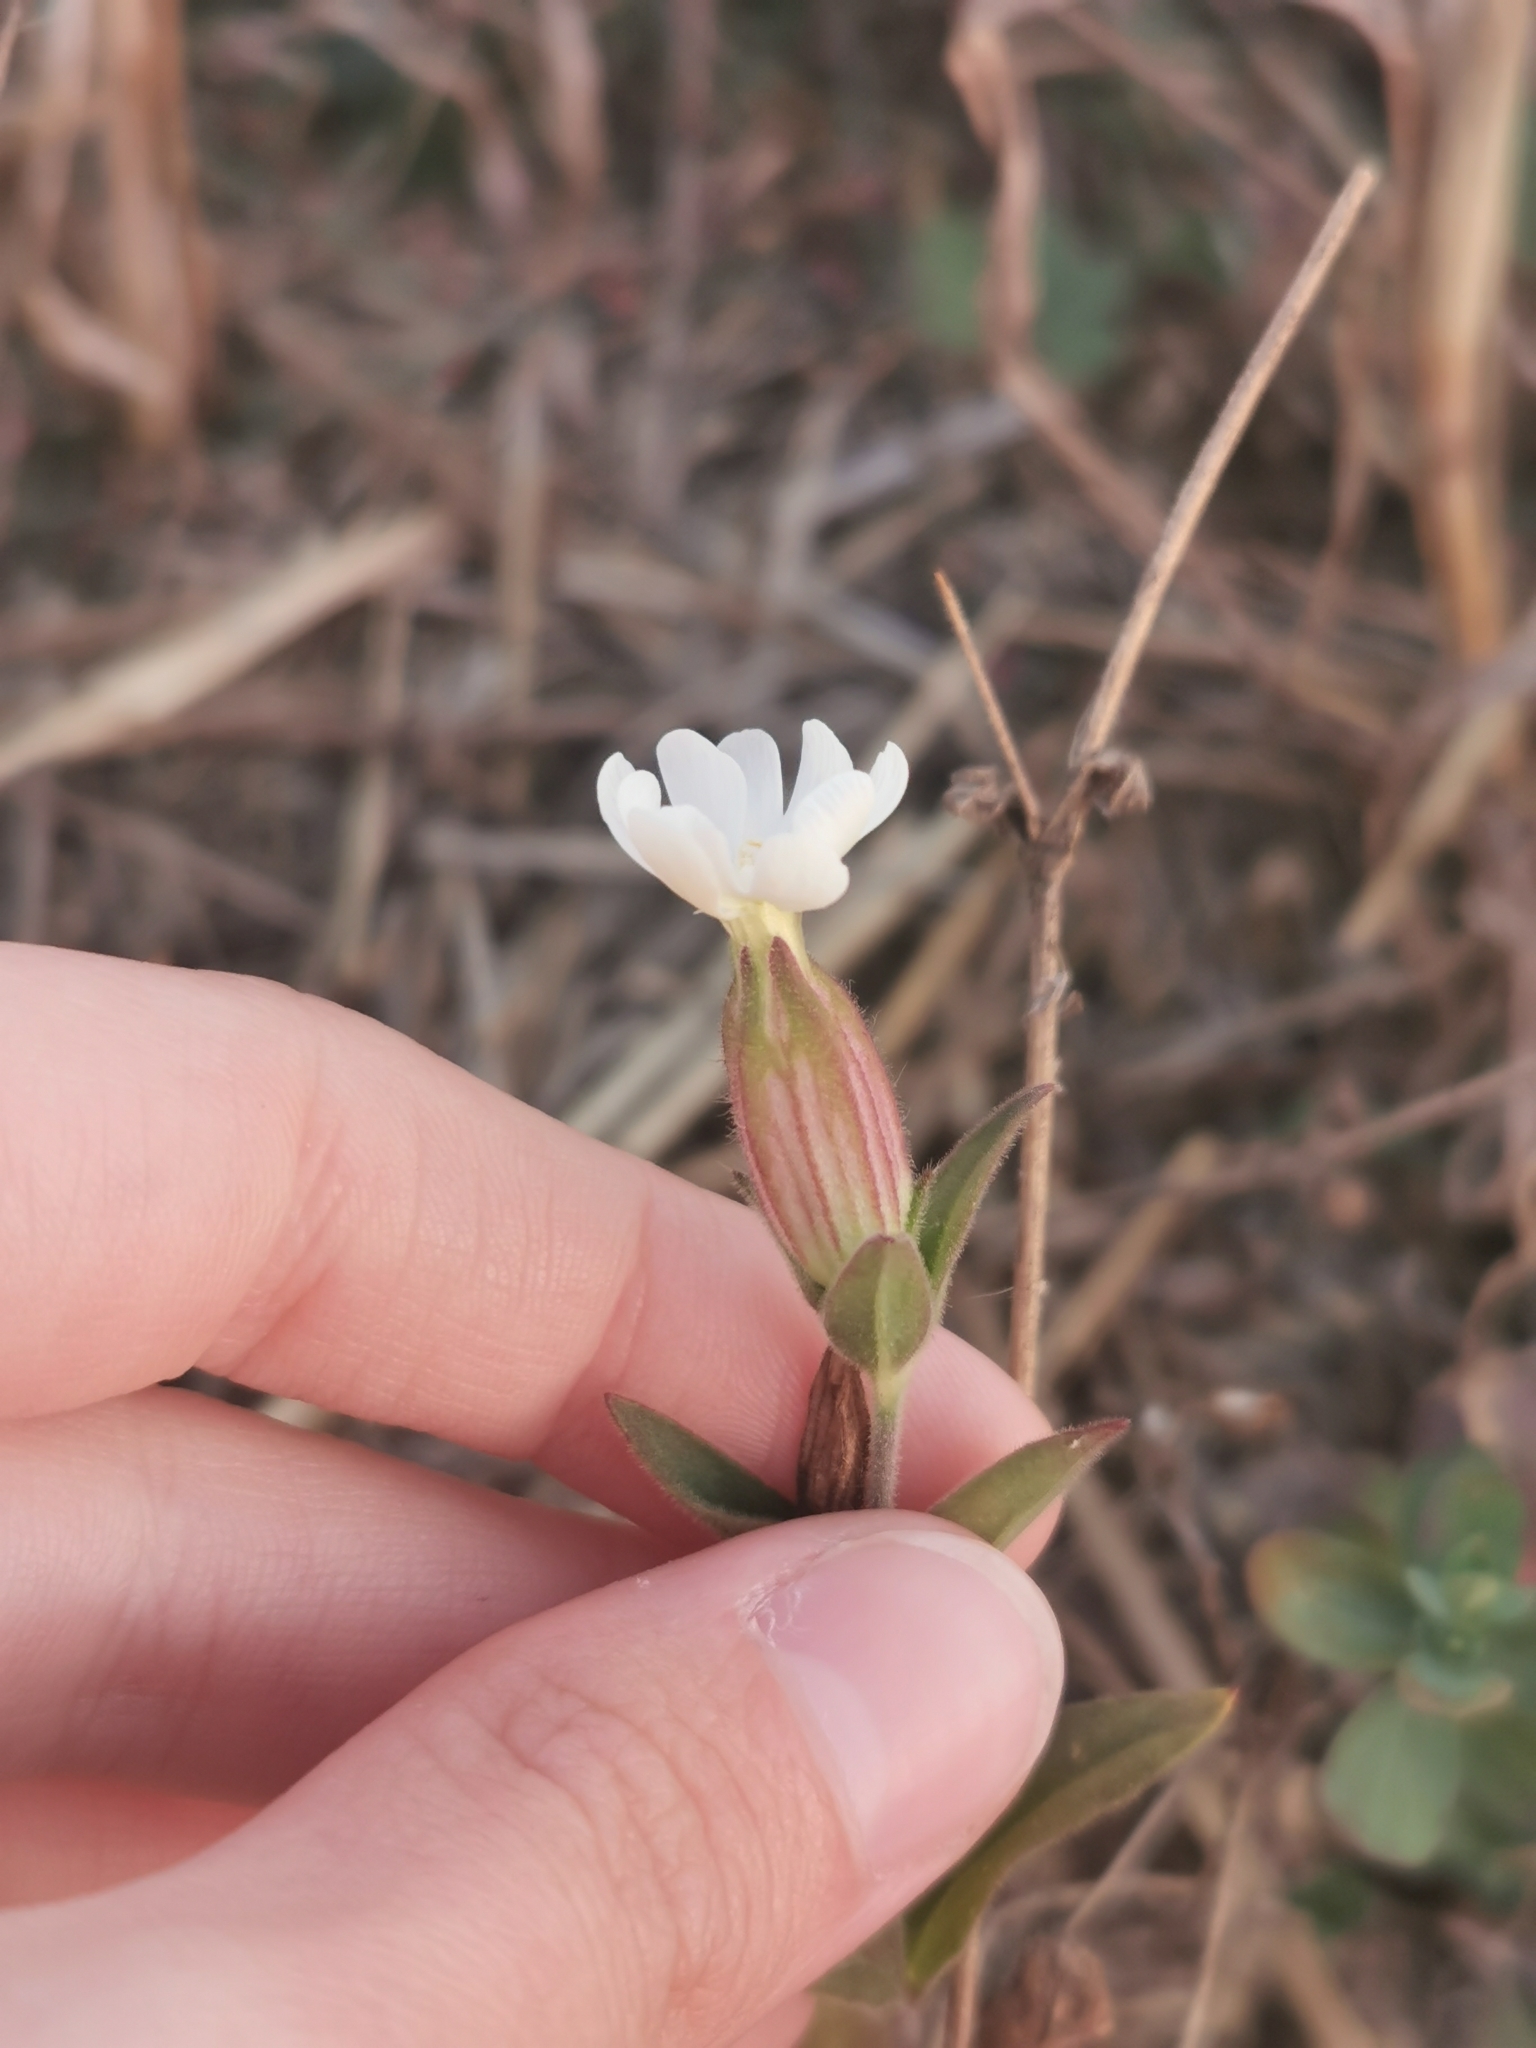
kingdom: Plantae
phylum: Tracheophyta
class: Magnoliopsida
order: Caryophyllales
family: Caryophyllaceae
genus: Silene
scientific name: Silene latifolia
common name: White campion
